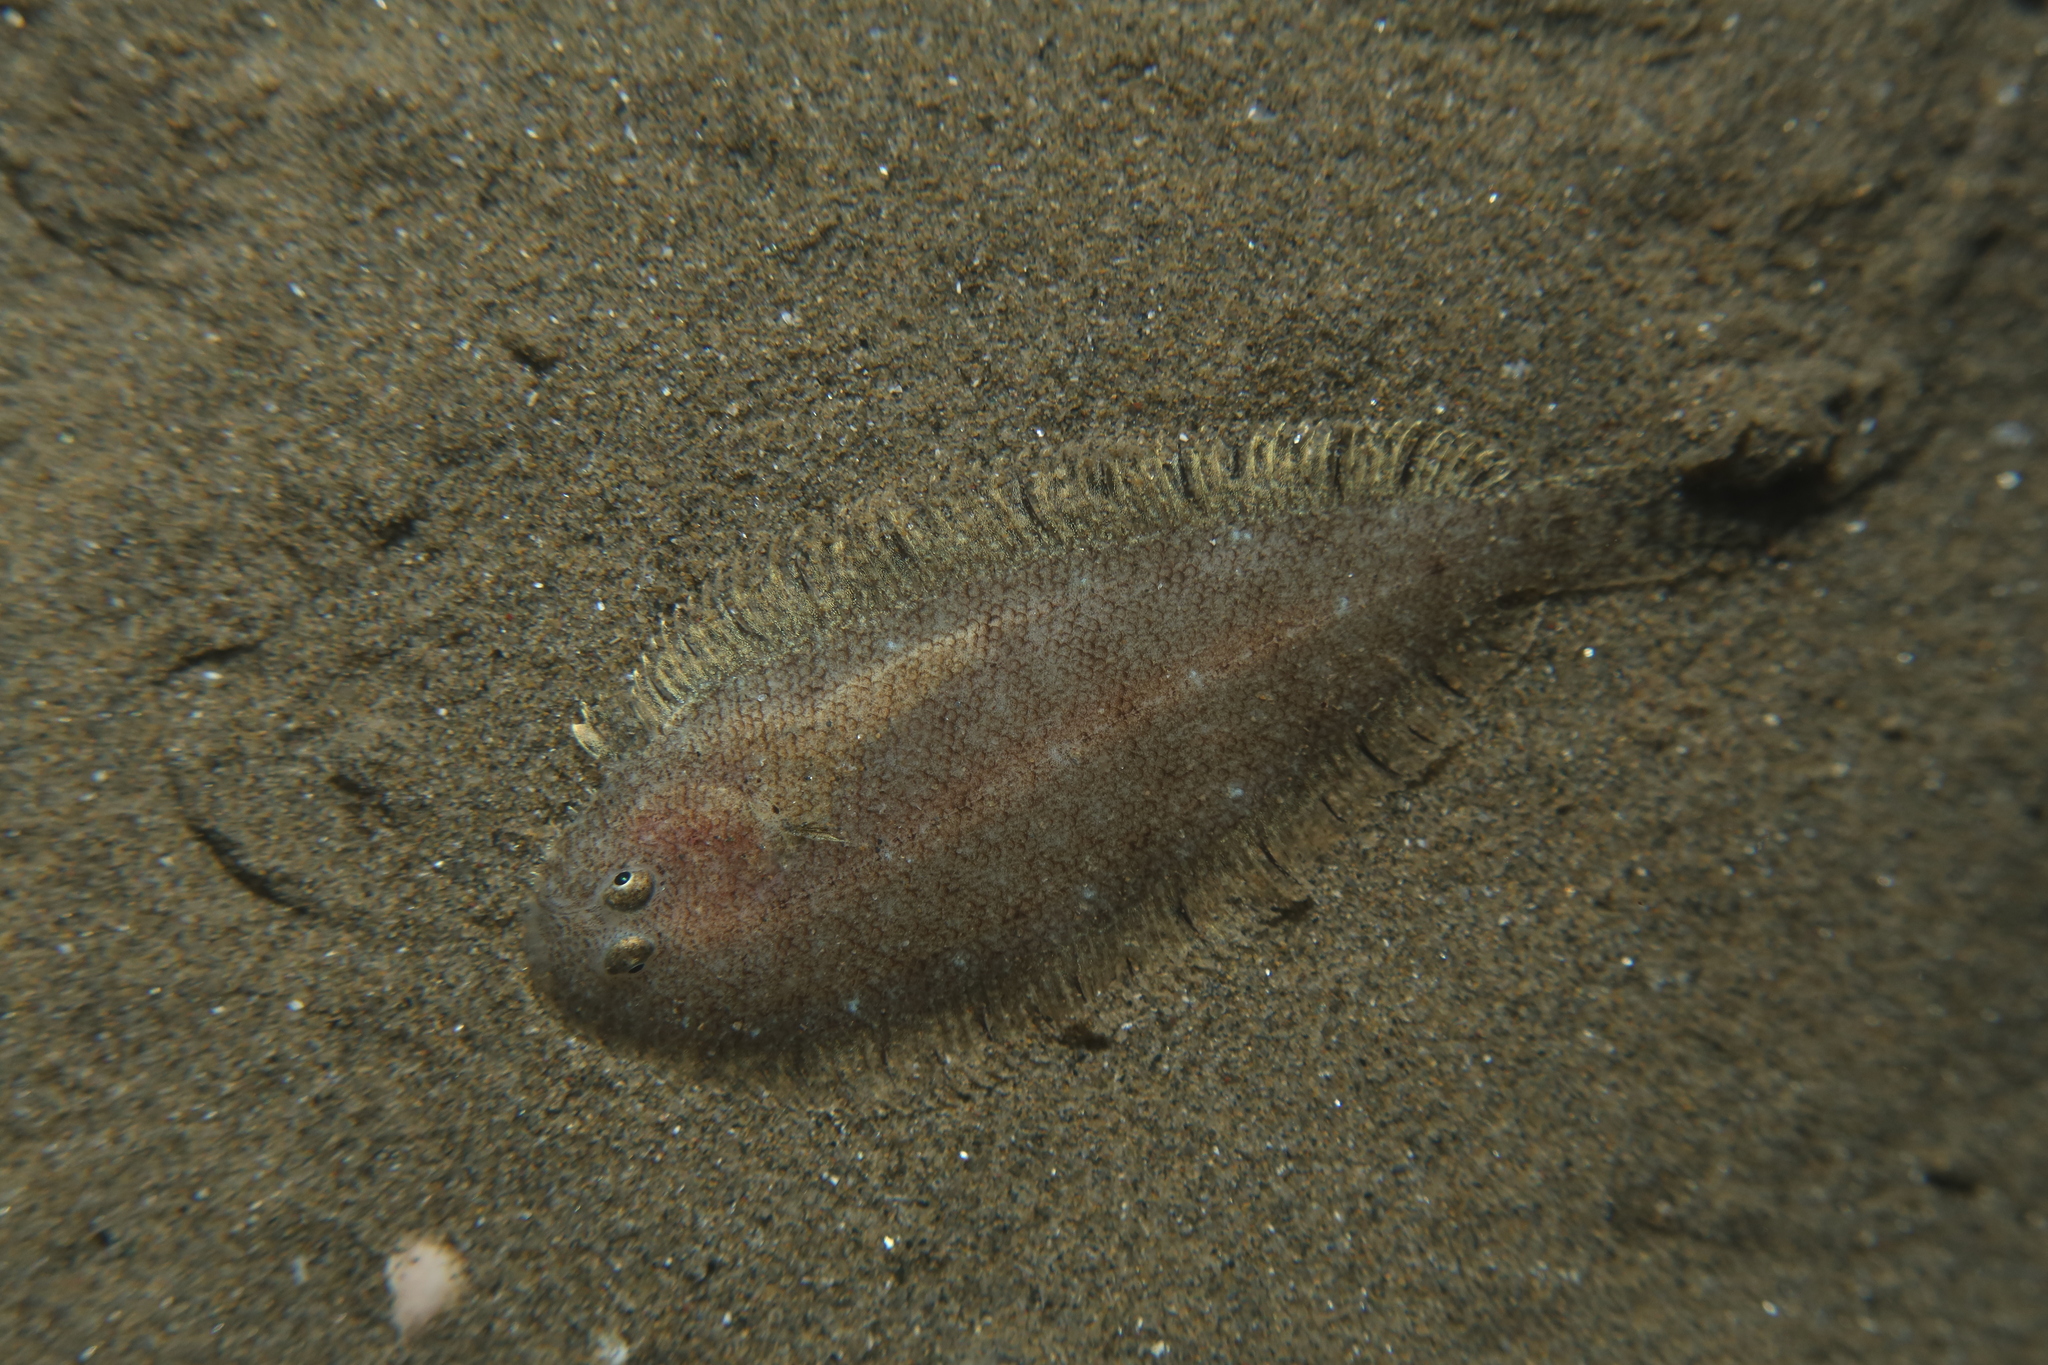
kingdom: Animalia
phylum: Chordata
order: Pleuronectiformes
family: Soleidae
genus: Buglossidium
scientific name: Buglossidium luteum
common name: Solenette
